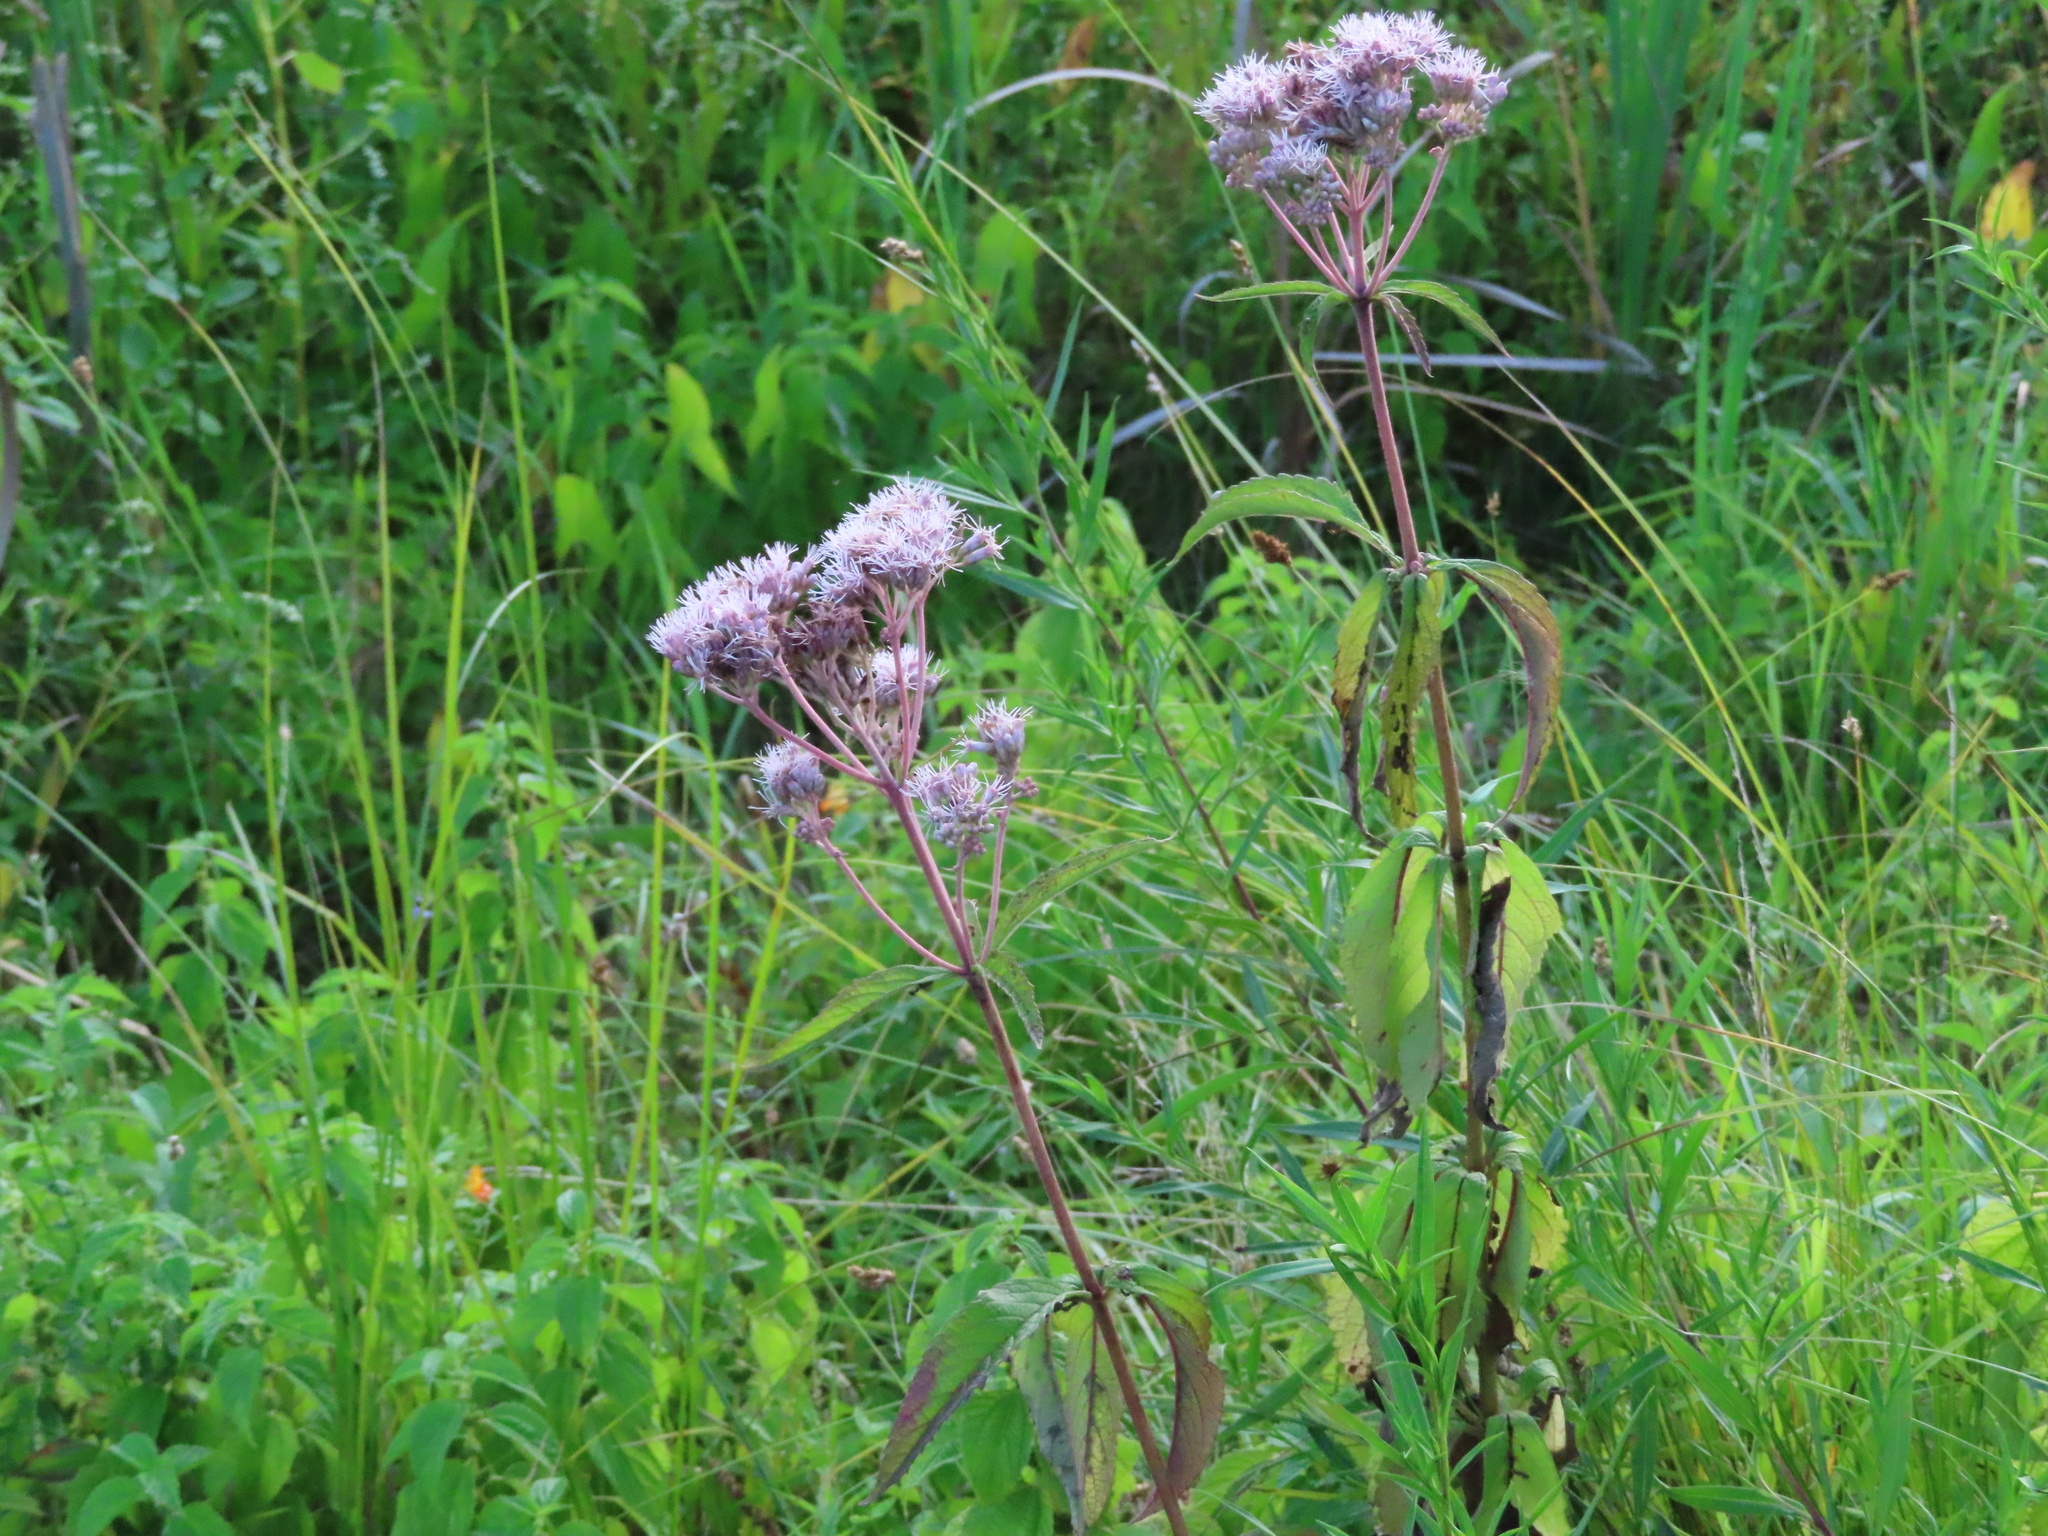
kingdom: Plantae
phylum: Tracheophyta
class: Magnoliopsida
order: Asterales
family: Asteraceae
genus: Eutrochium
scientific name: Eutrochium maculatum
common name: Spotted joe pye weed
